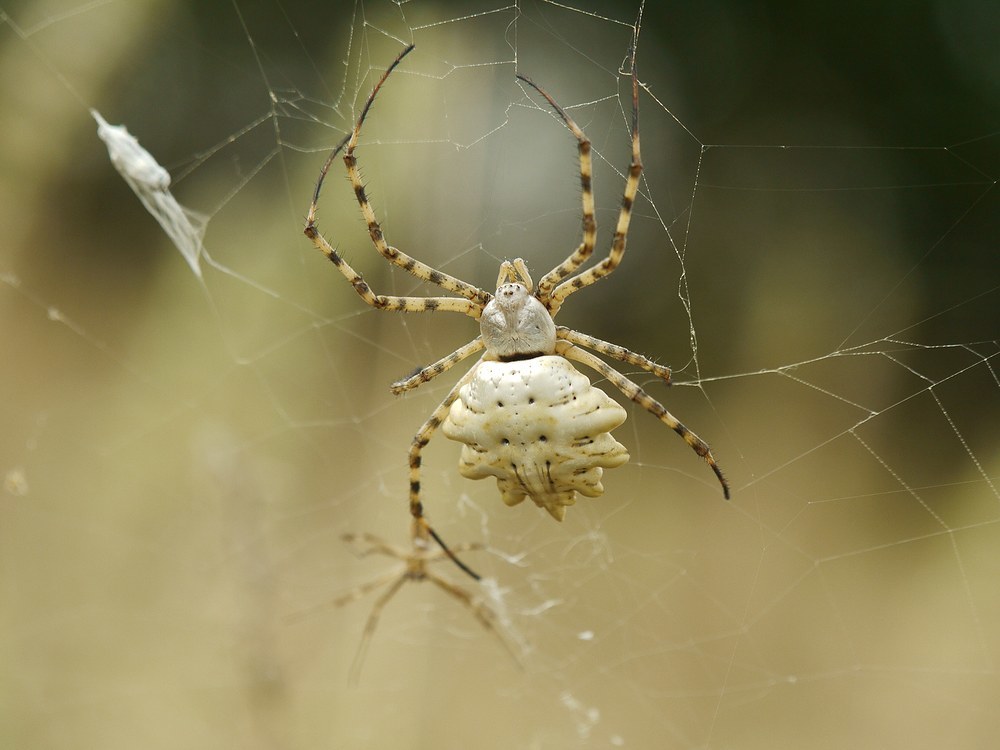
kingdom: Animalia
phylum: Arthropoda
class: Arachnida
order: Araneae
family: Araneidae
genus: Argiope
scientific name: Argiope lobata
